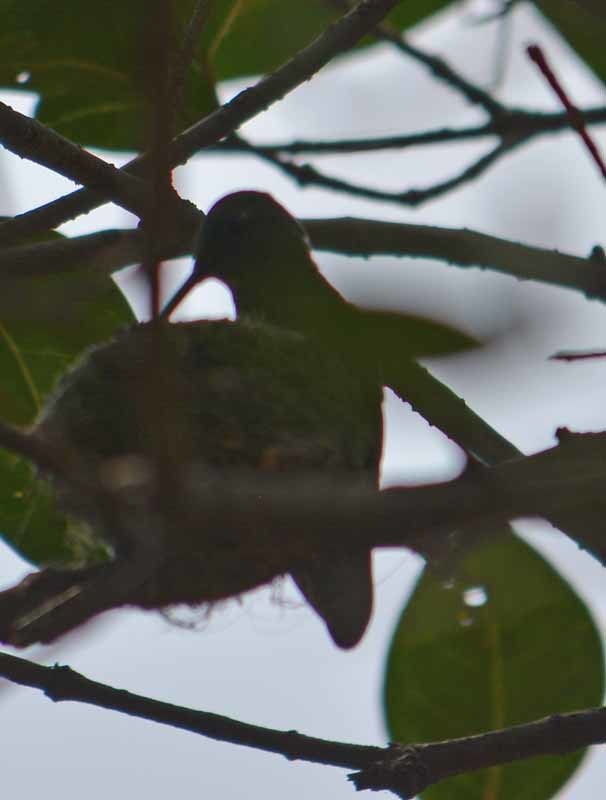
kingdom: Animalia
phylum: Chordata
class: Aves
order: Apodiformes
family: Trochilidae
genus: Saucerottia
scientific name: Saucerottia beryllina
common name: Berylline hummingbird
